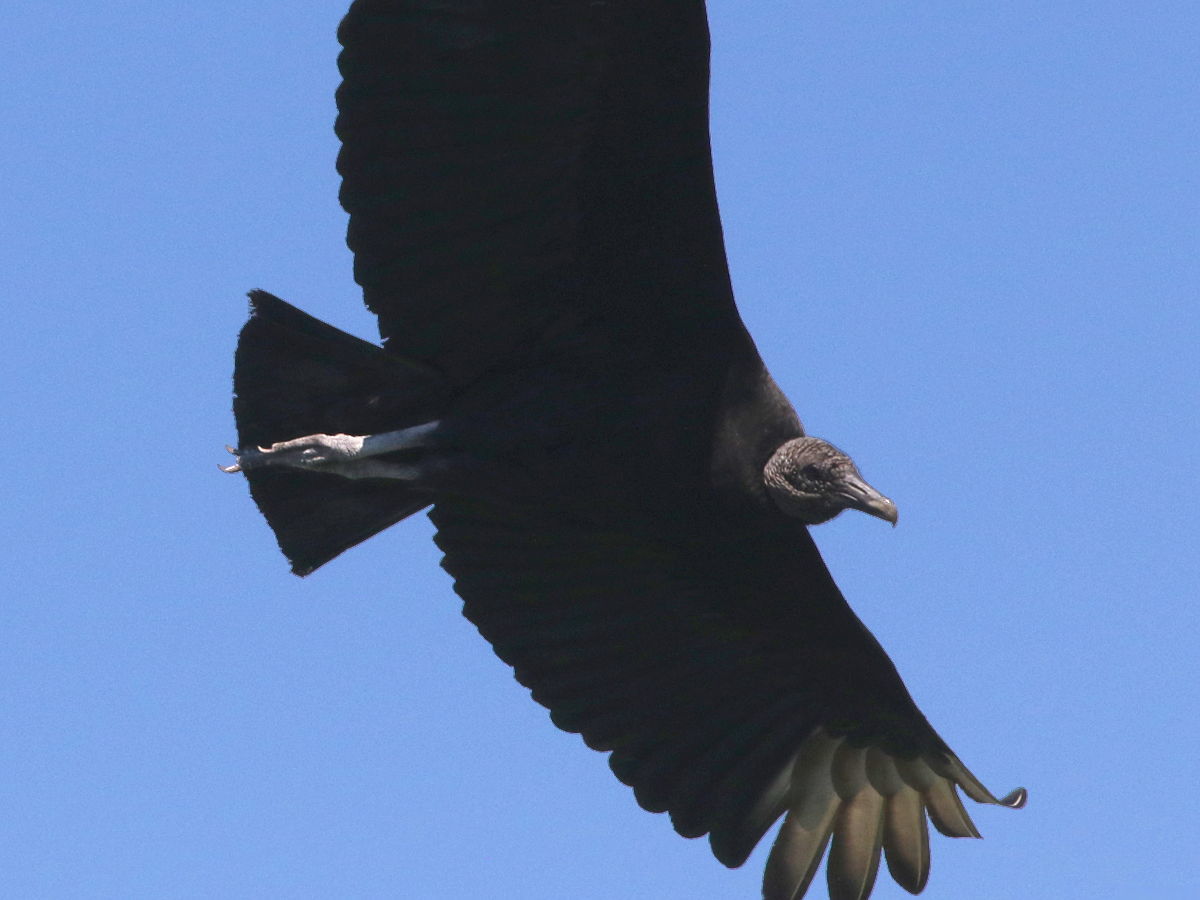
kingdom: Animalia
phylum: Chordata
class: Aves
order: Accipitriformes
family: Cathartidae
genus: Coragyps
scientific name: Coragyps atratus
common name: Black vulture
